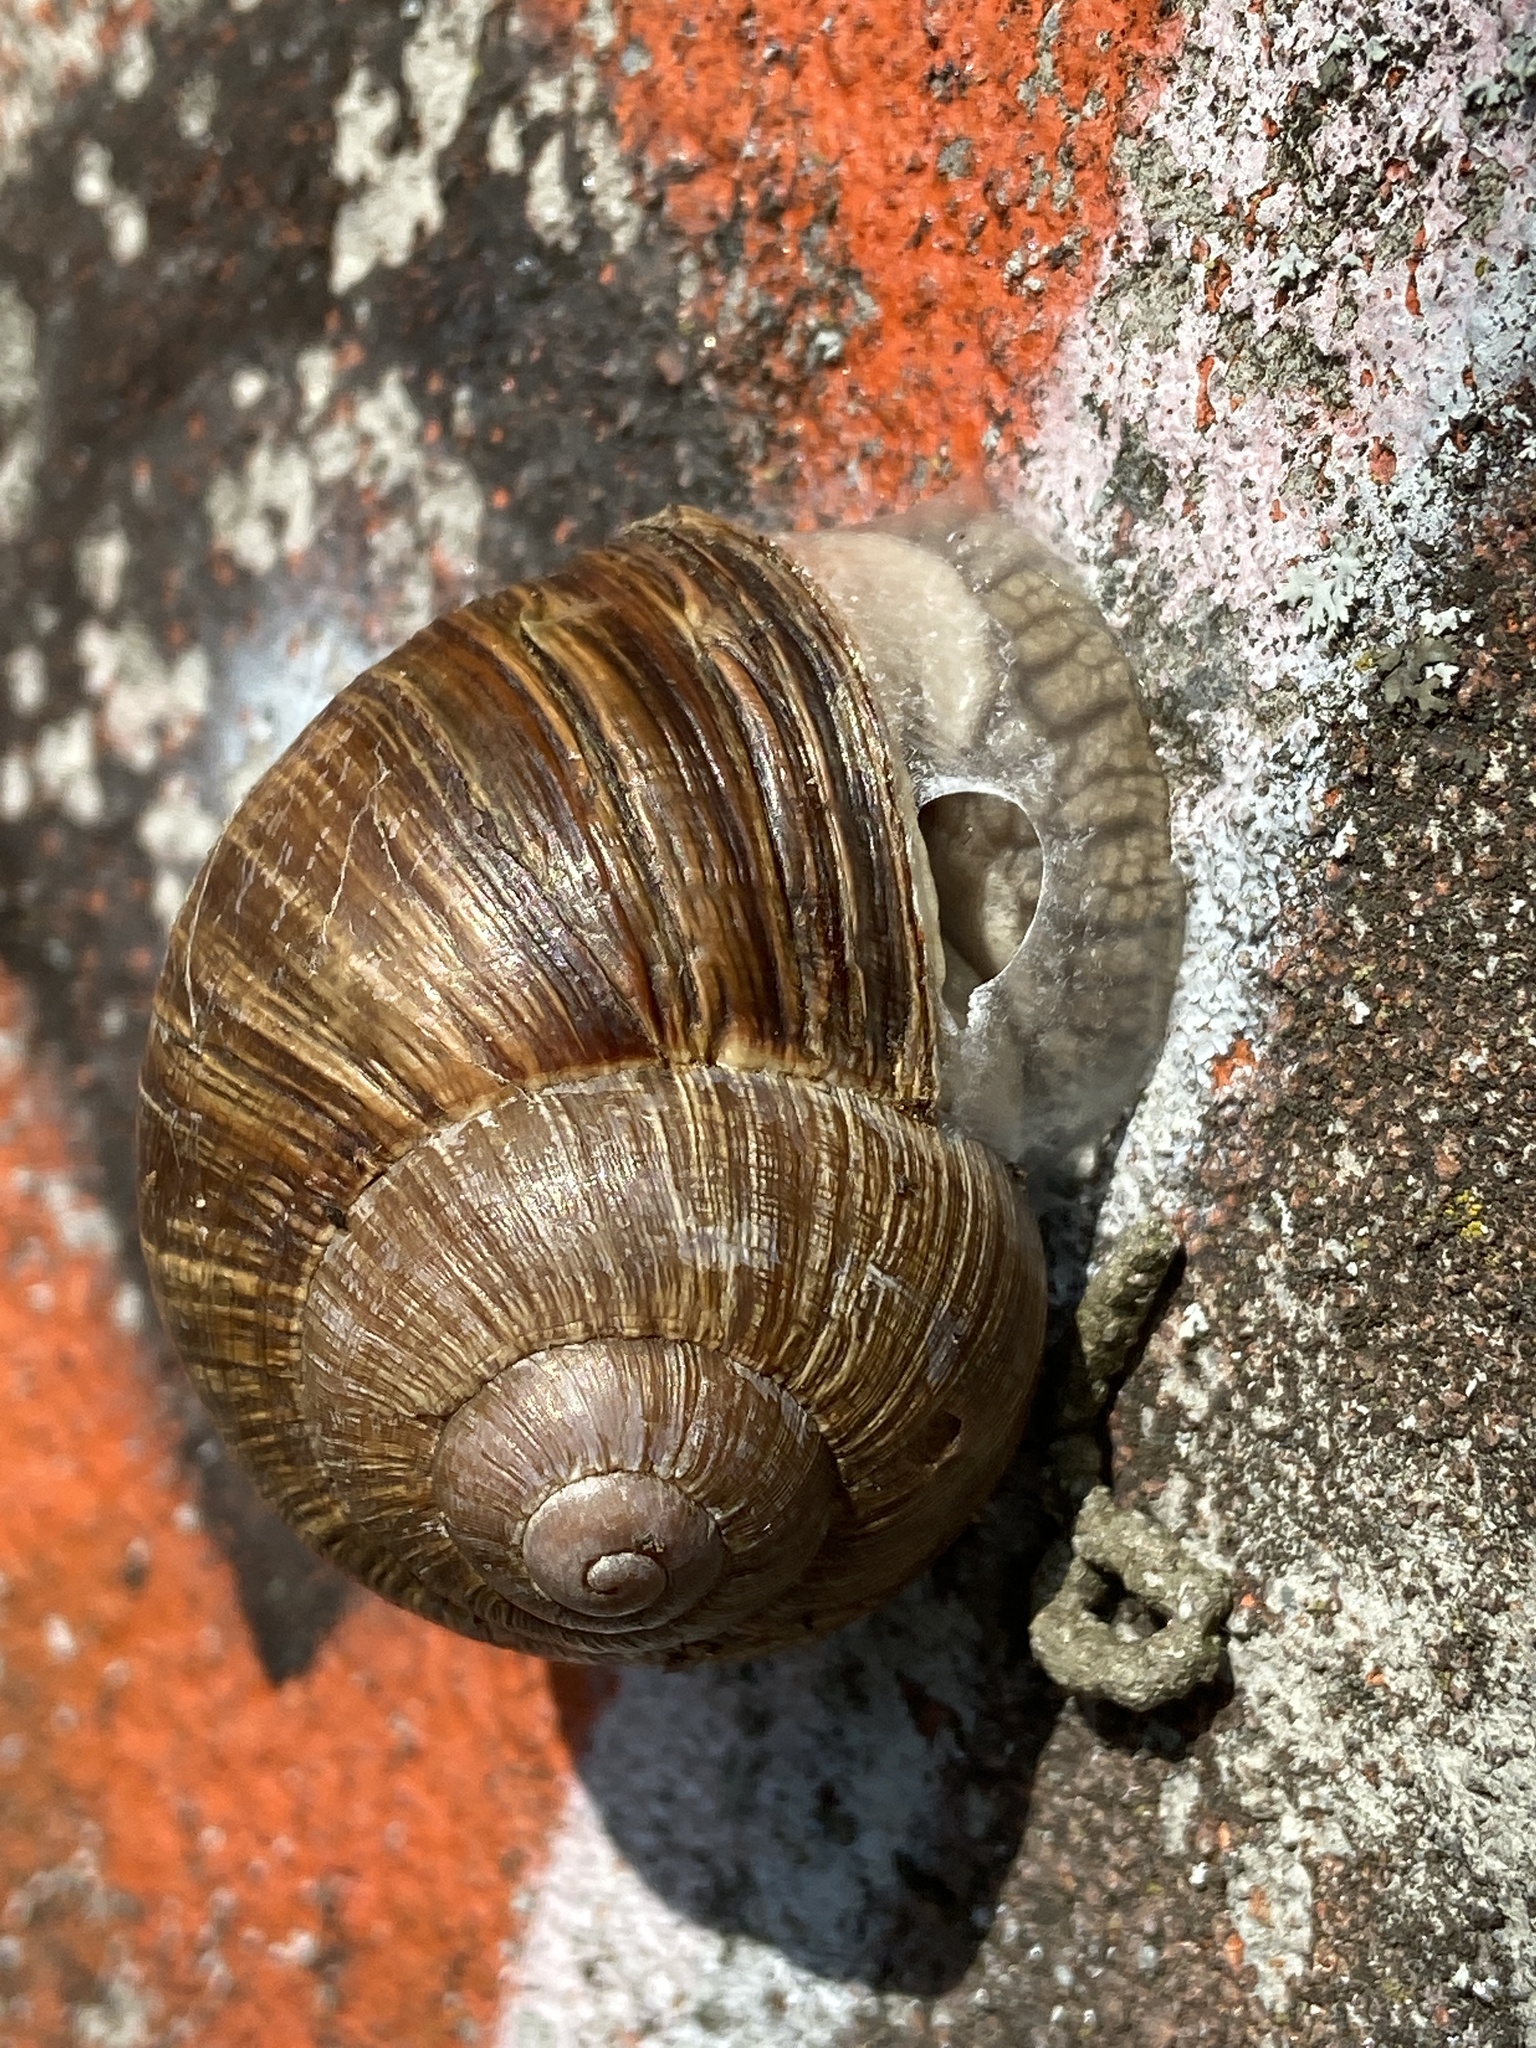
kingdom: Animalia
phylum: Mollusca
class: Gastropoda
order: Stylommatophora
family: Helicidae
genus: Helix
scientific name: Helix pomatia
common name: Roman snail
